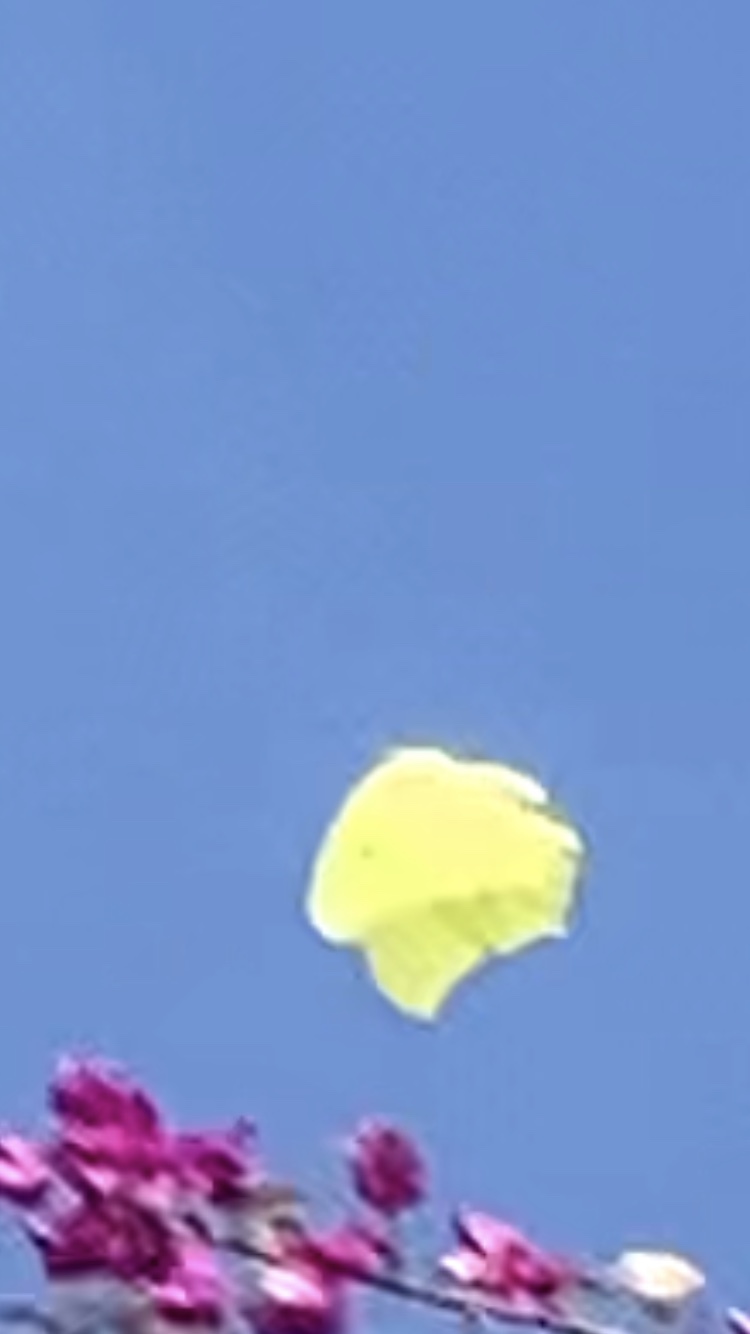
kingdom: Animalia
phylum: Arthropoda
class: Insecta
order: Lepidoptera
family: Pieridae
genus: Anteos
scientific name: Anteos maerula
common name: Angled sulphur
